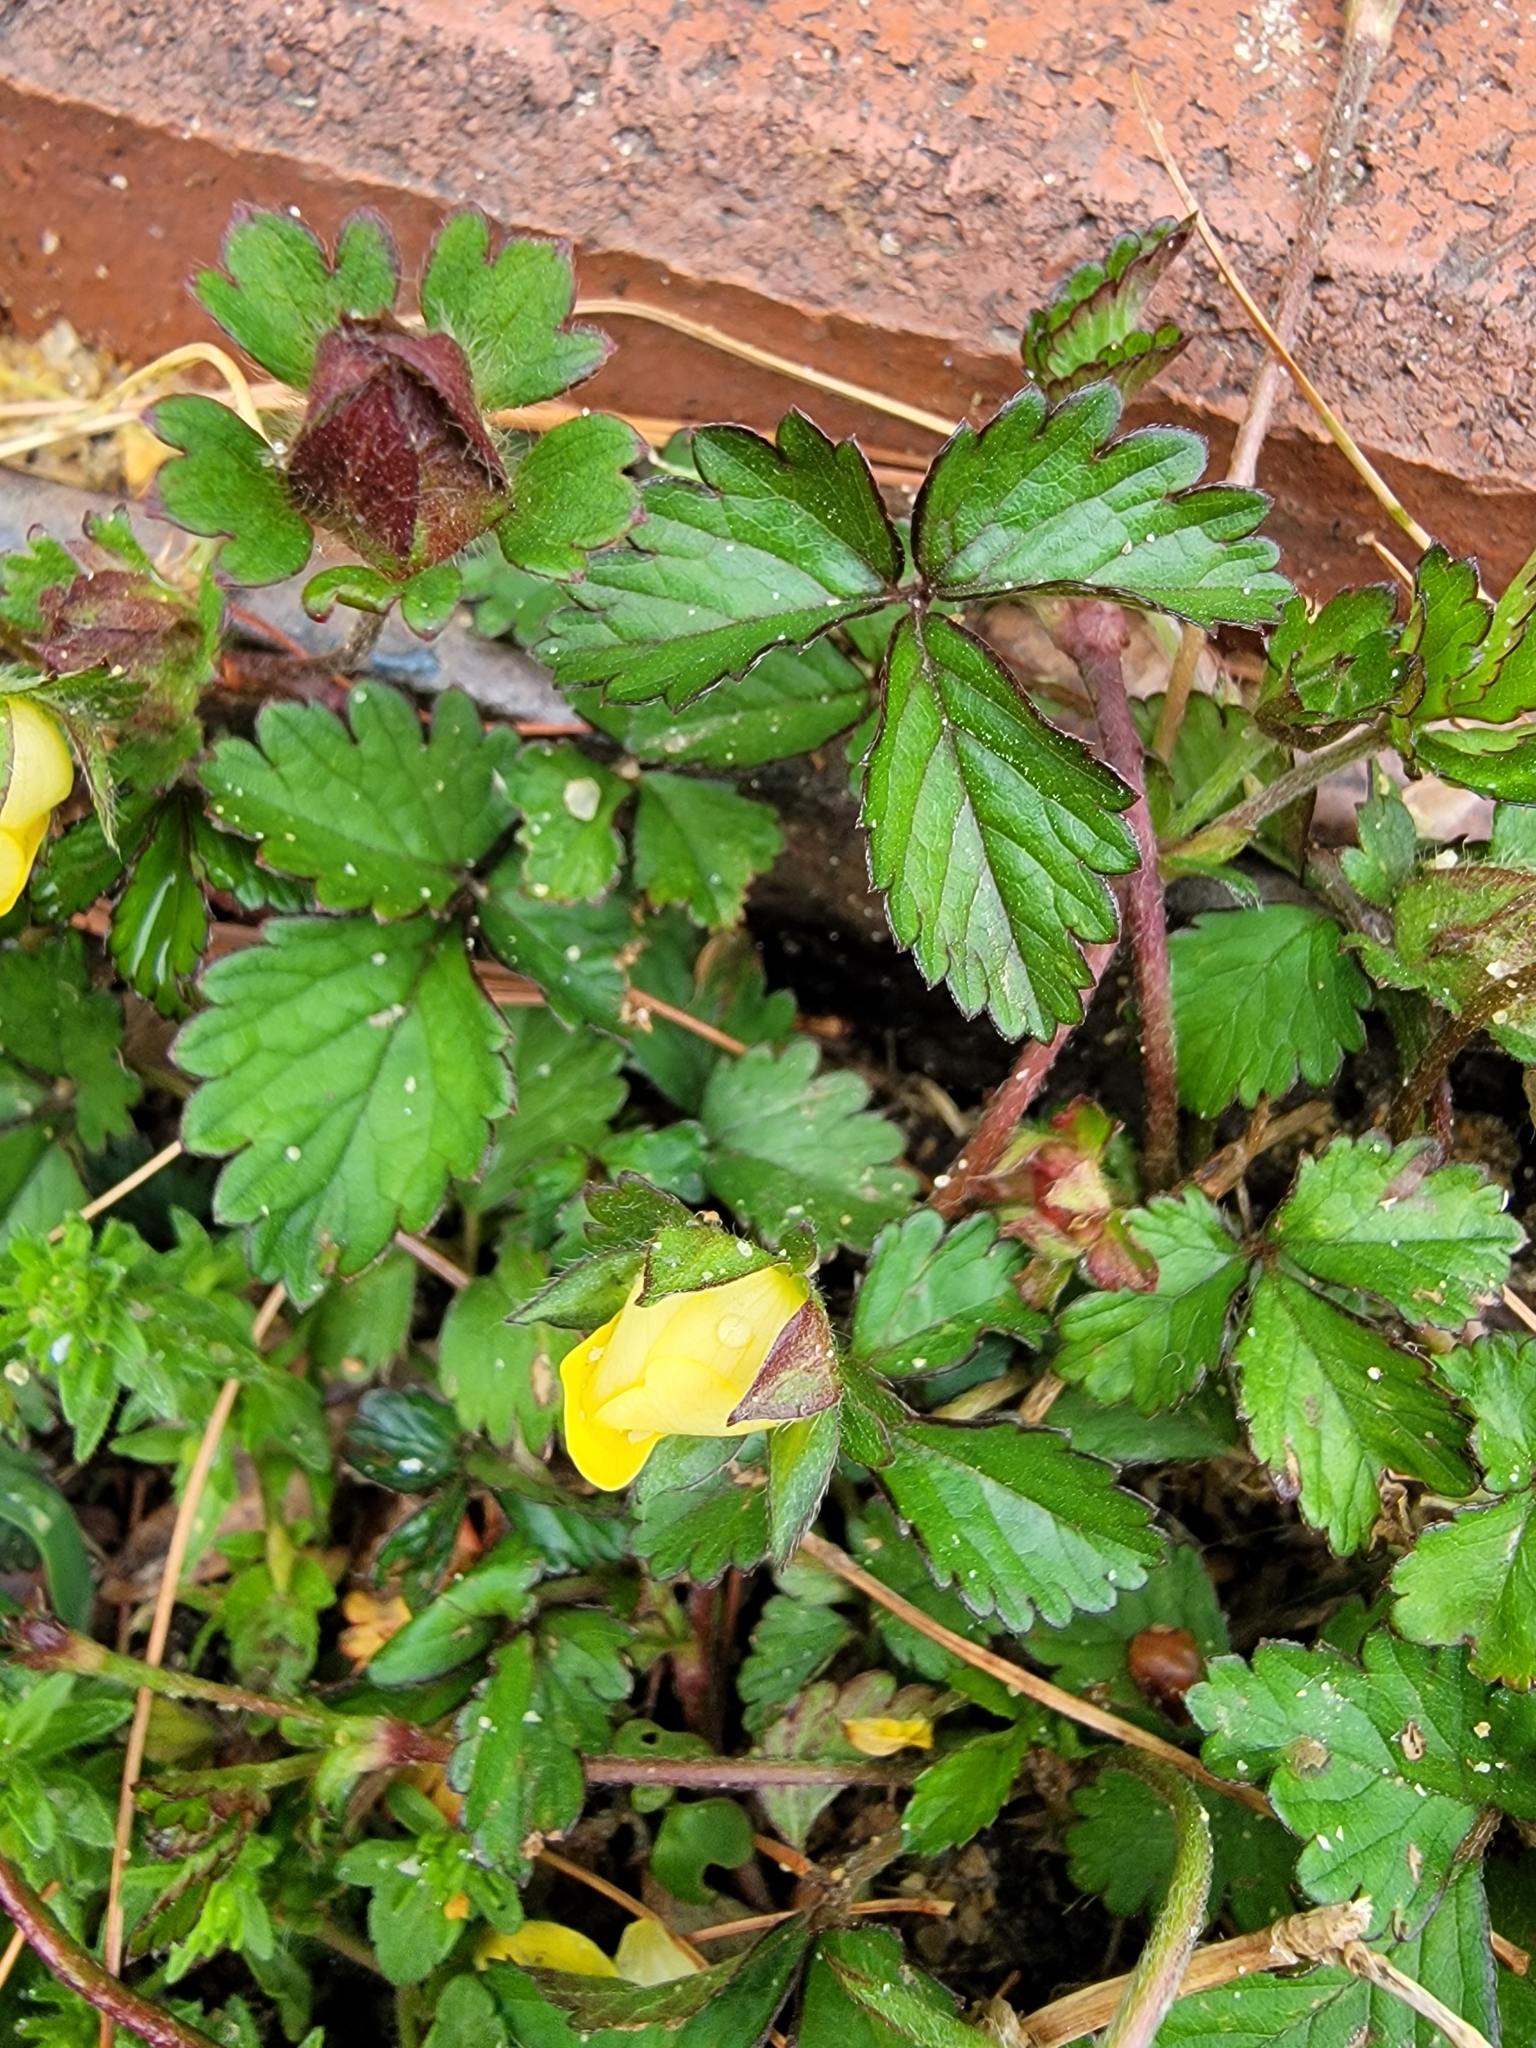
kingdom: Plantae
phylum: Tracheophyta
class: Magnoliopsida
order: Rosales
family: Rosaceae
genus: Potentilla
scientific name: Potentilla indica
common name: Yellow-flowered strawberry
